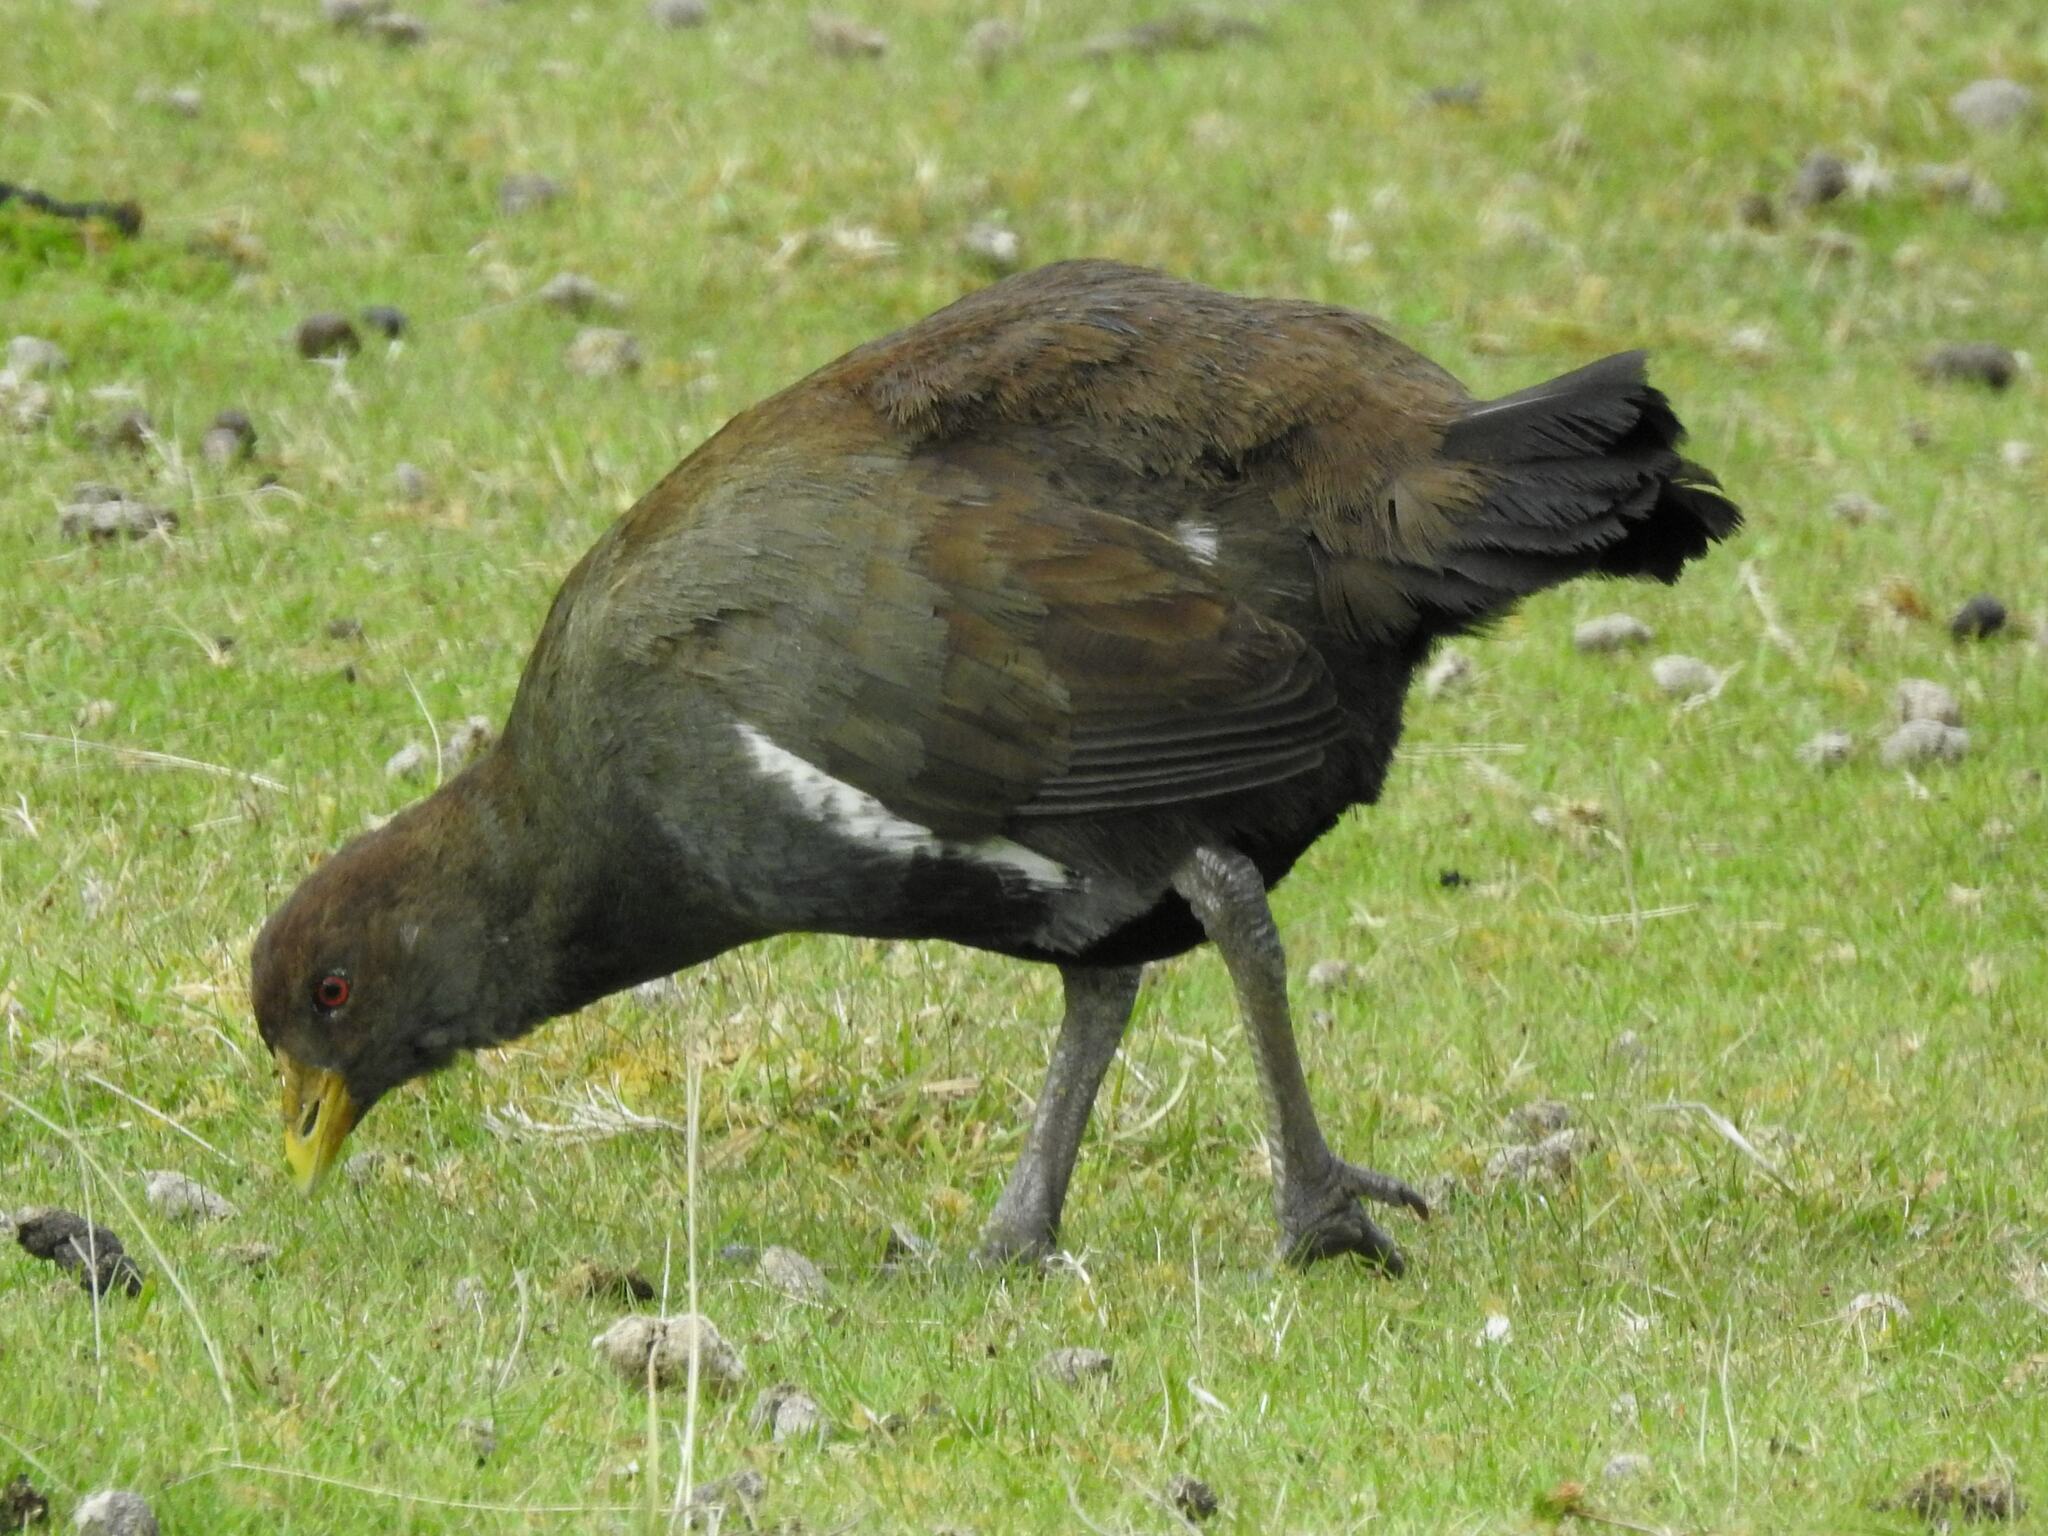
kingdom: Animalia
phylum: Chordata
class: Aves
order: Gruiformes
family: Rallidae
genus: Gallinula
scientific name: Gallinula mortierii
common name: Tasmanian nativehen
